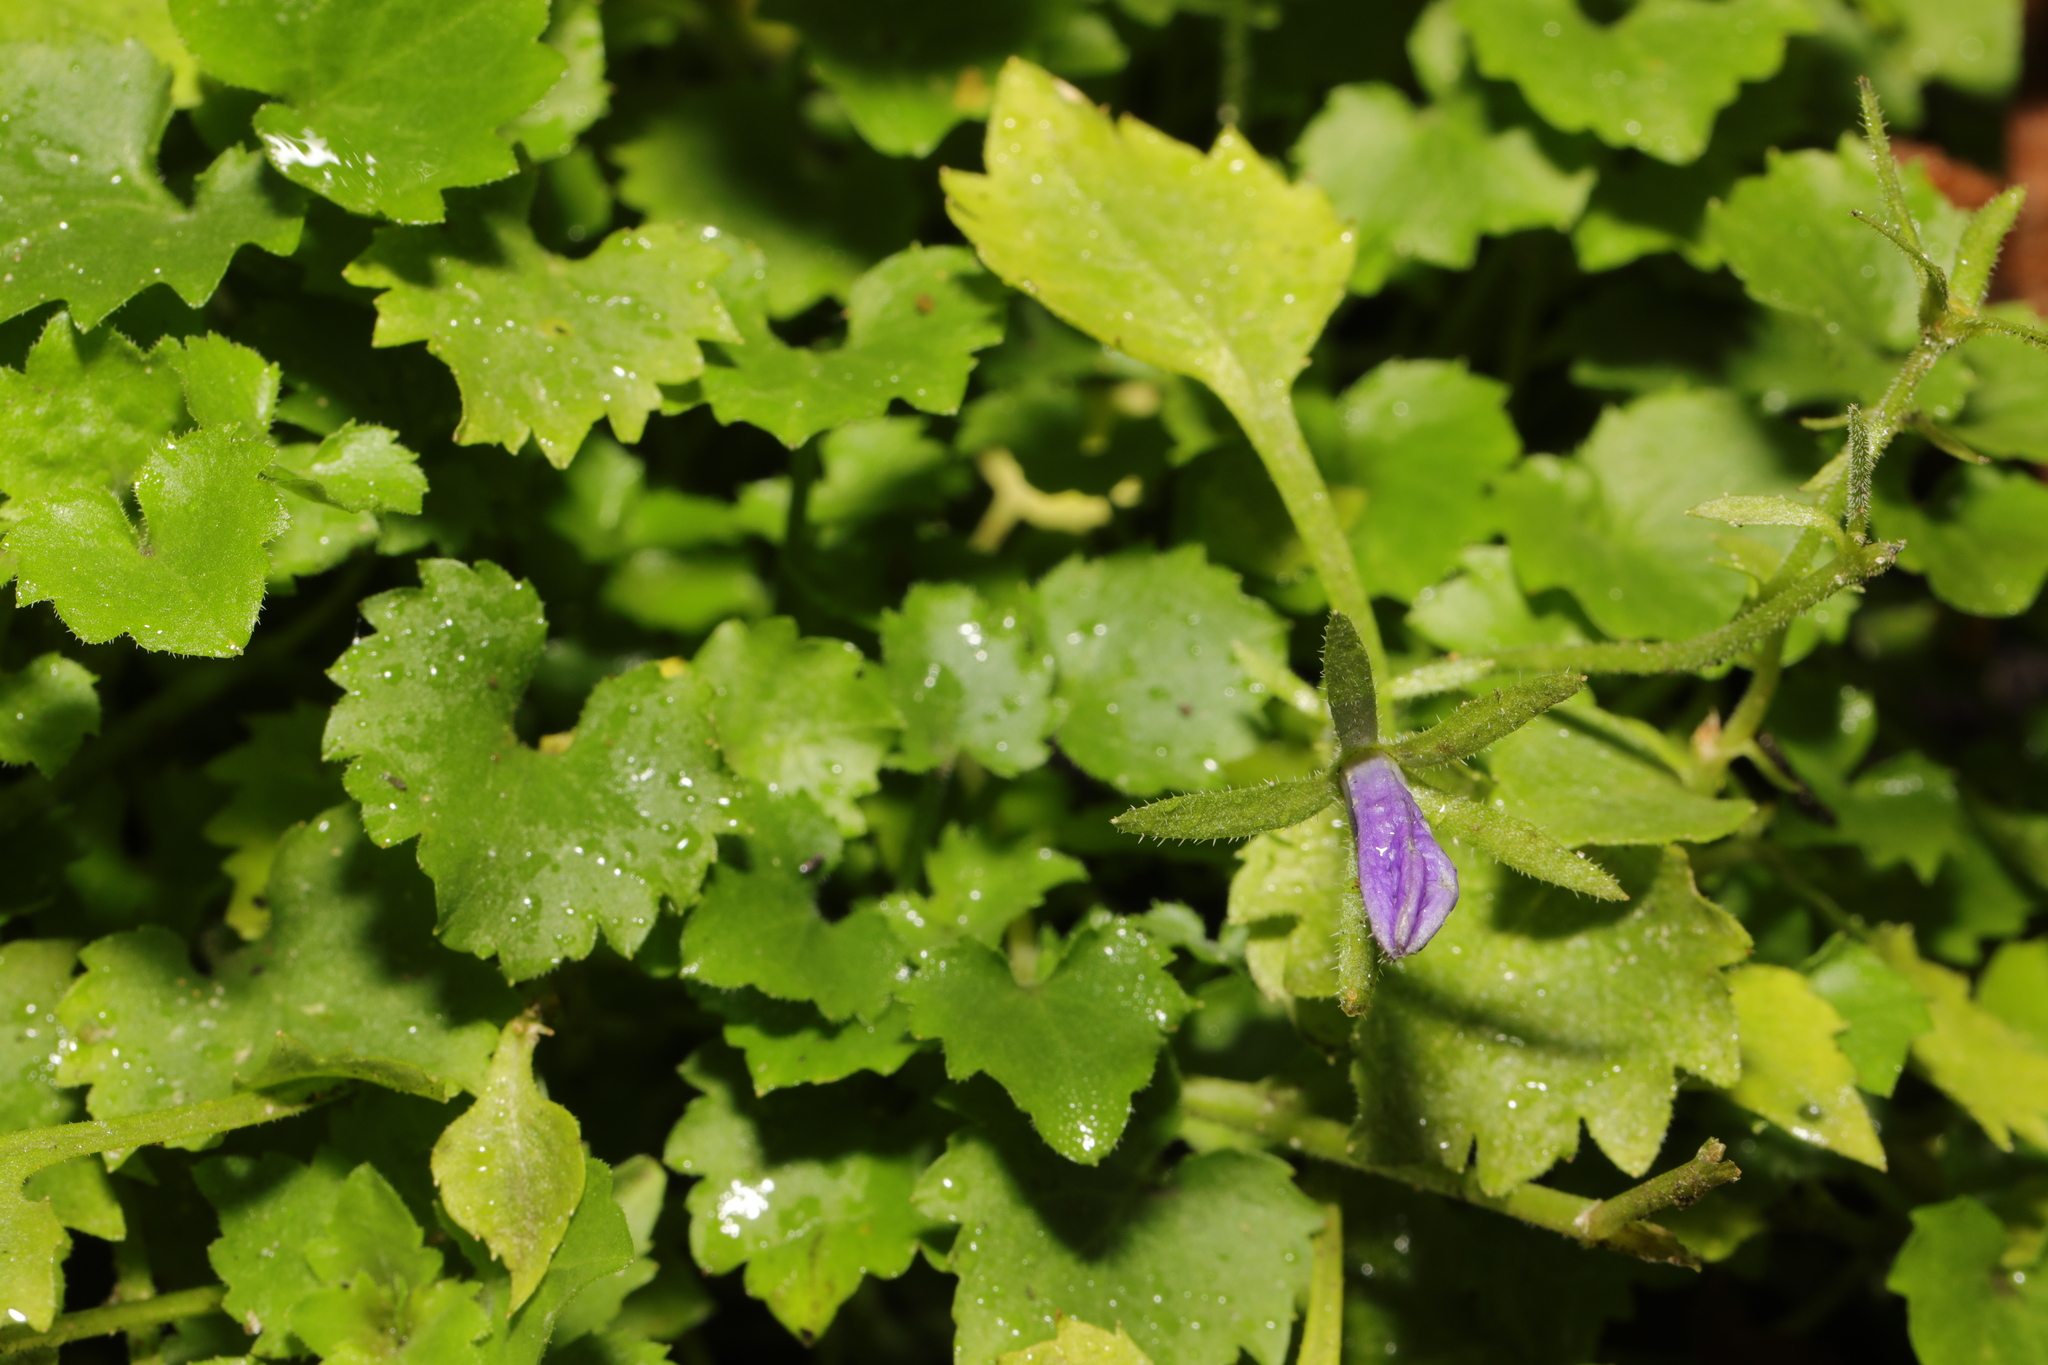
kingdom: Plantae
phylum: Tracheophyta
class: Magnoliopsida
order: Asterales
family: Campanulaceae
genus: Campanula
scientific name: Campanula portenschlagiana
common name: Adria bellflower
